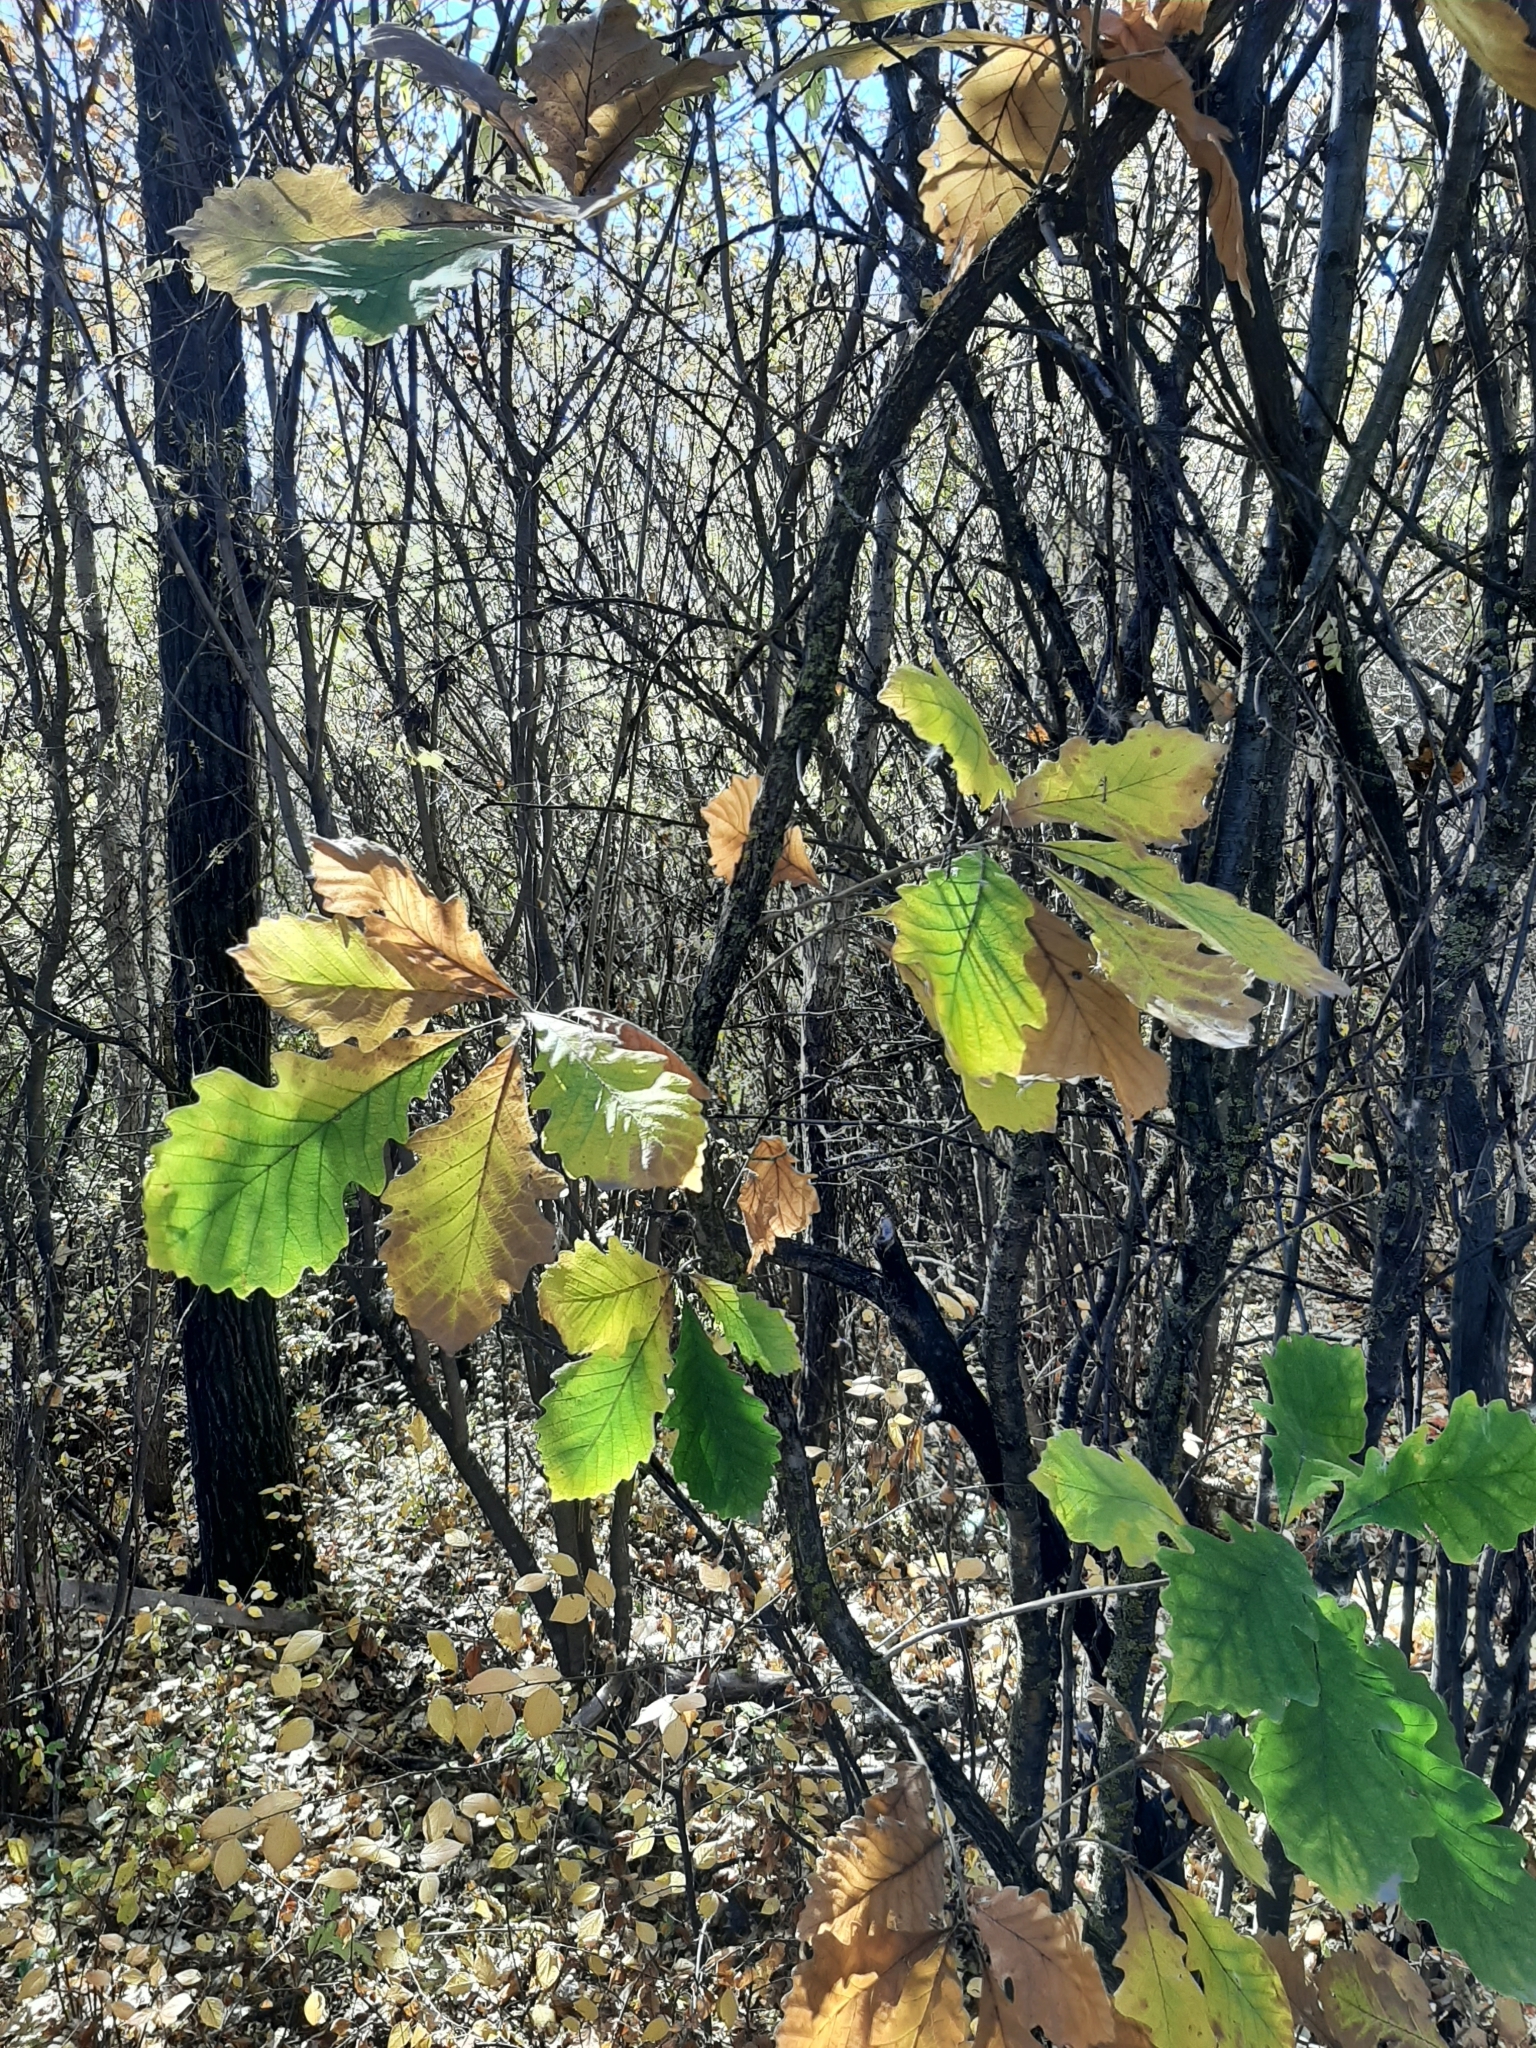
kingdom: Plantae
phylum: Tracheophyta
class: Magnoliopsida
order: Fagales
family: Fagaceae
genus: Quercus
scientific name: Quercus macrocarpa
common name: Bur oak
